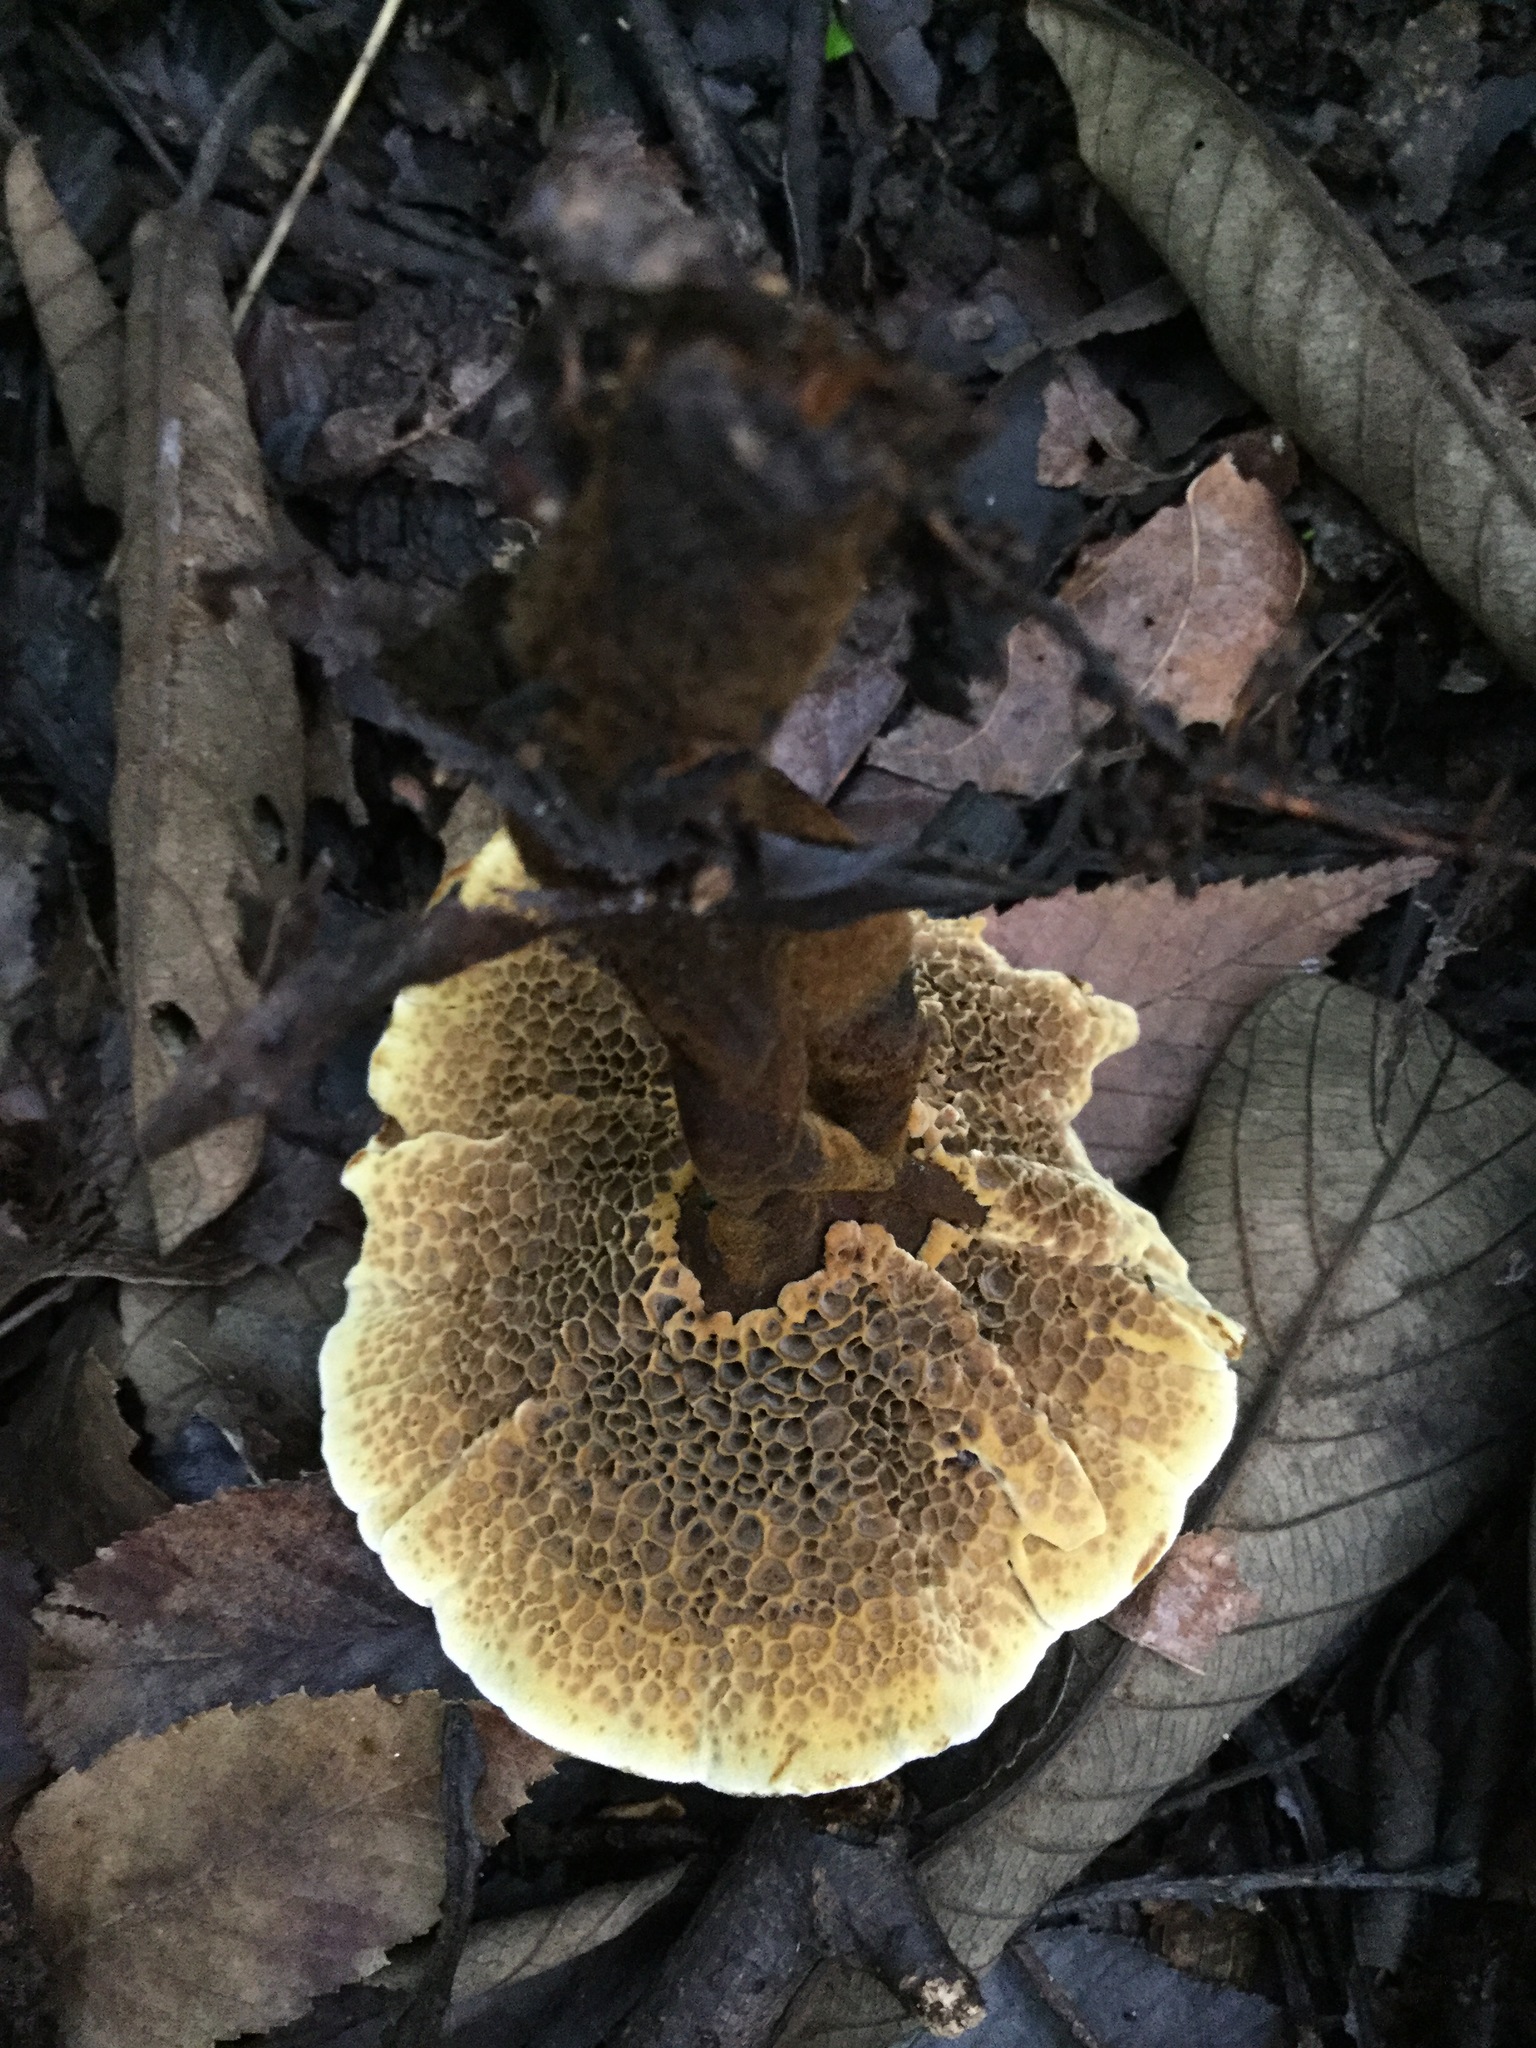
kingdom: Fungi
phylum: Basidiomycota
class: Agaricomycetes
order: Hymenochaetales
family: Hymenochaetaceae
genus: Coltricia
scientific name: Coltricia cinnamomea
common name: Shiny cinnamon polypore
